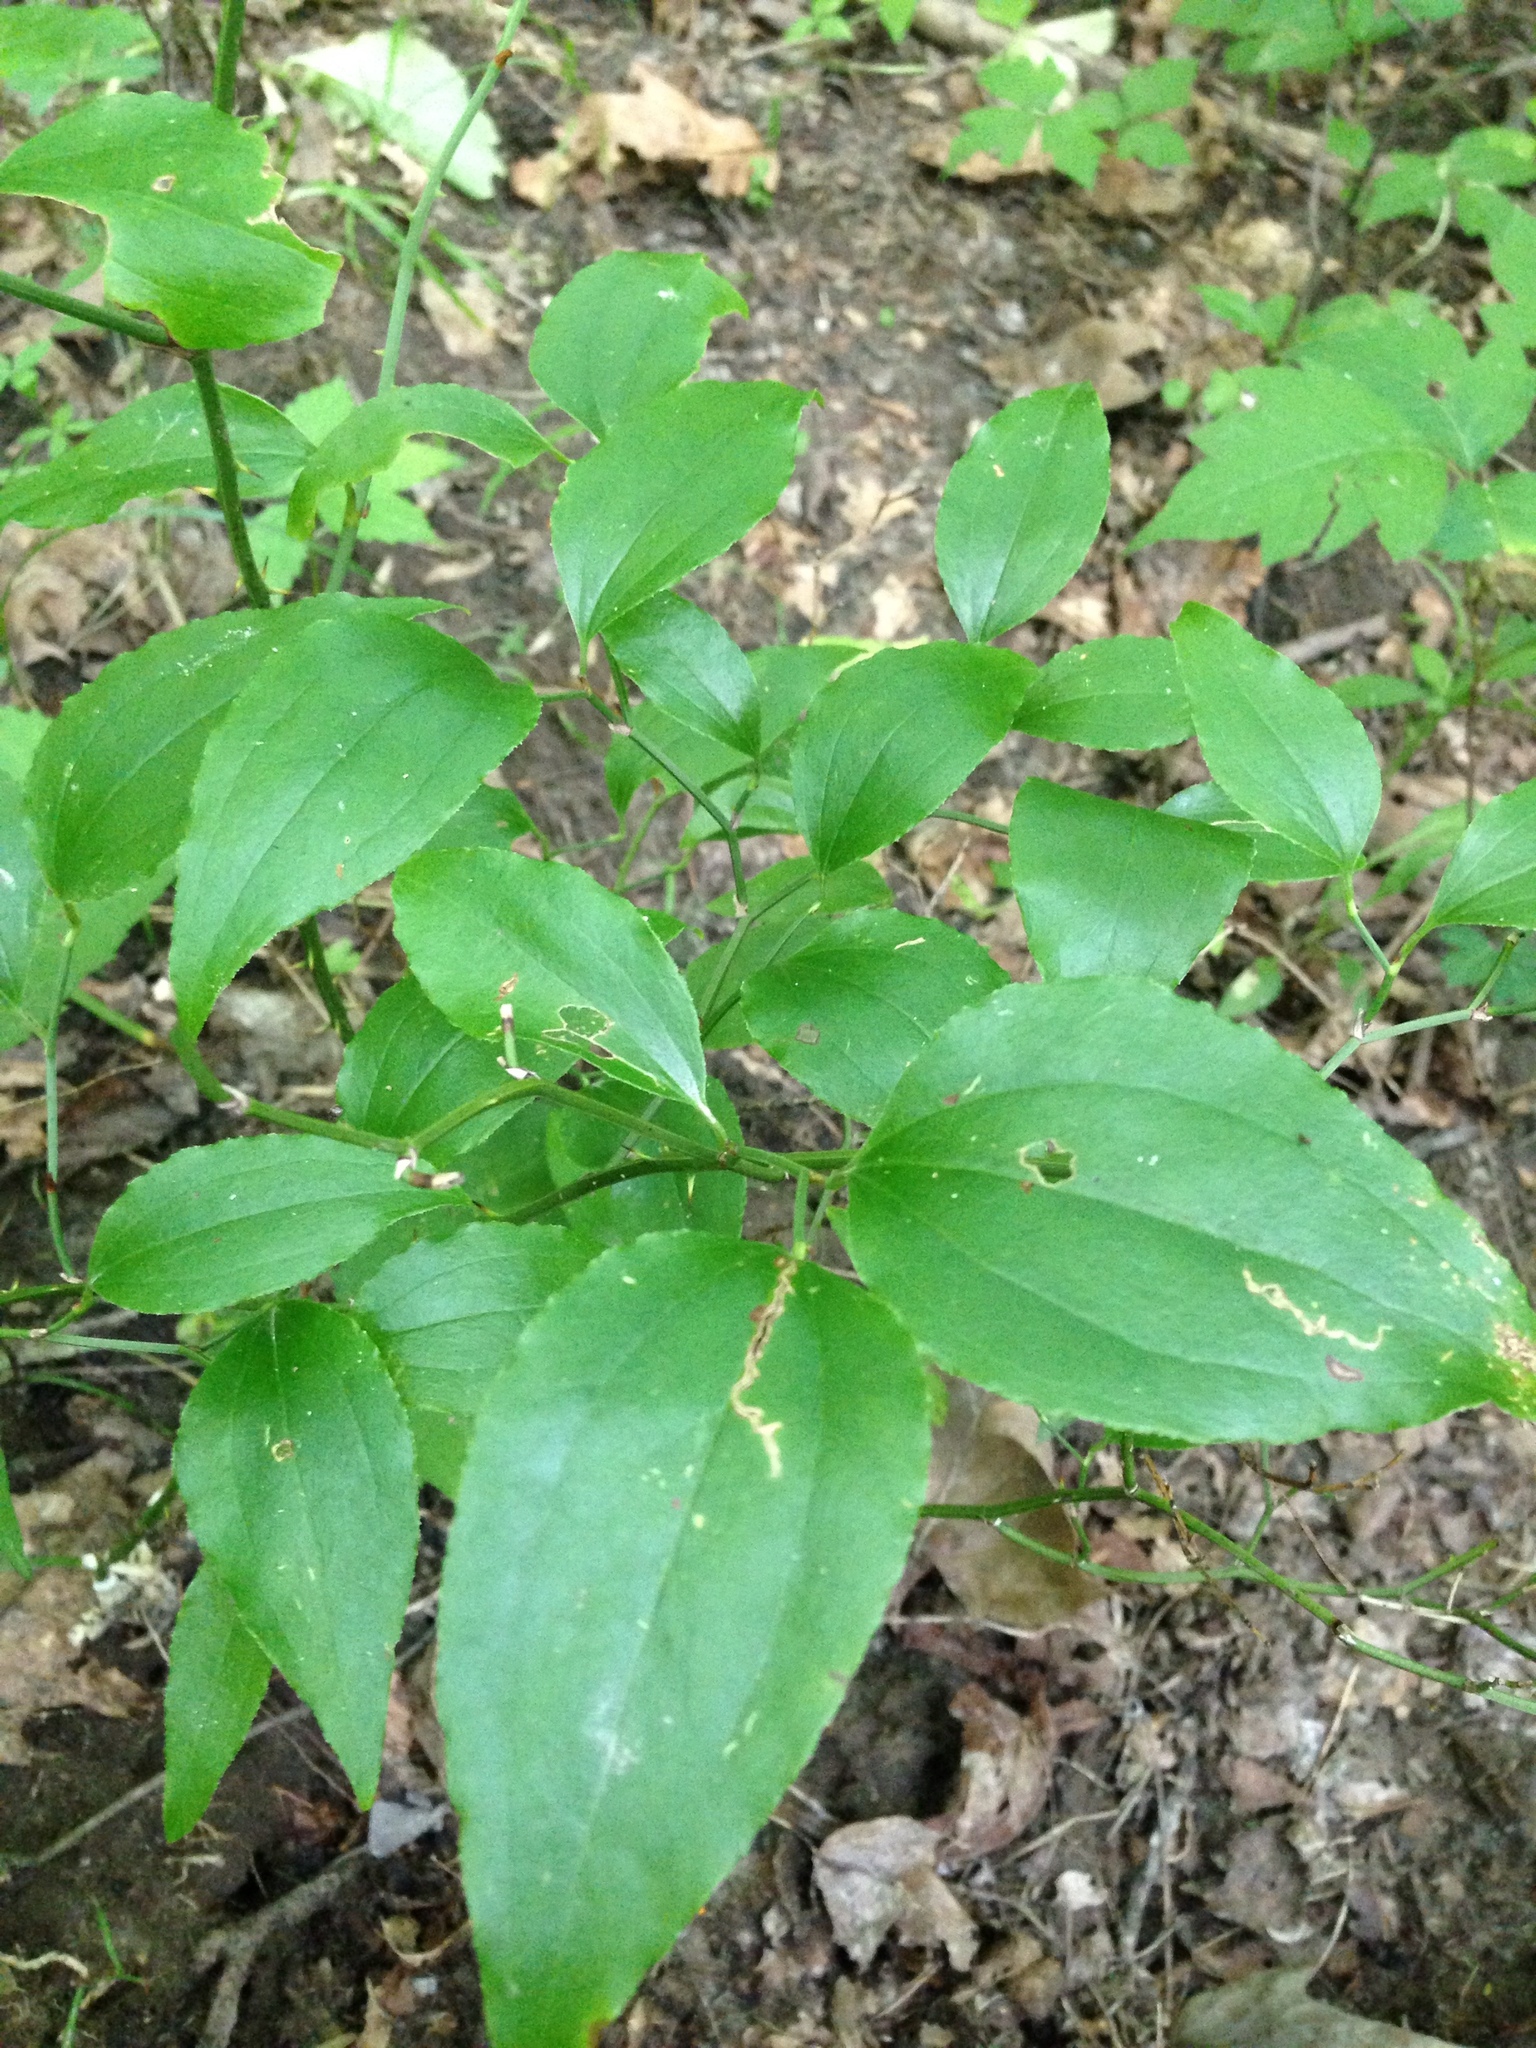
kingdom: Plantae
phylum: Tracheophyta
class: Liliopsida
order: Liliales
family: Smilacaceae
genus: Smilax
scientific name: Smilax rotundifolia
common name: Bullbriar
